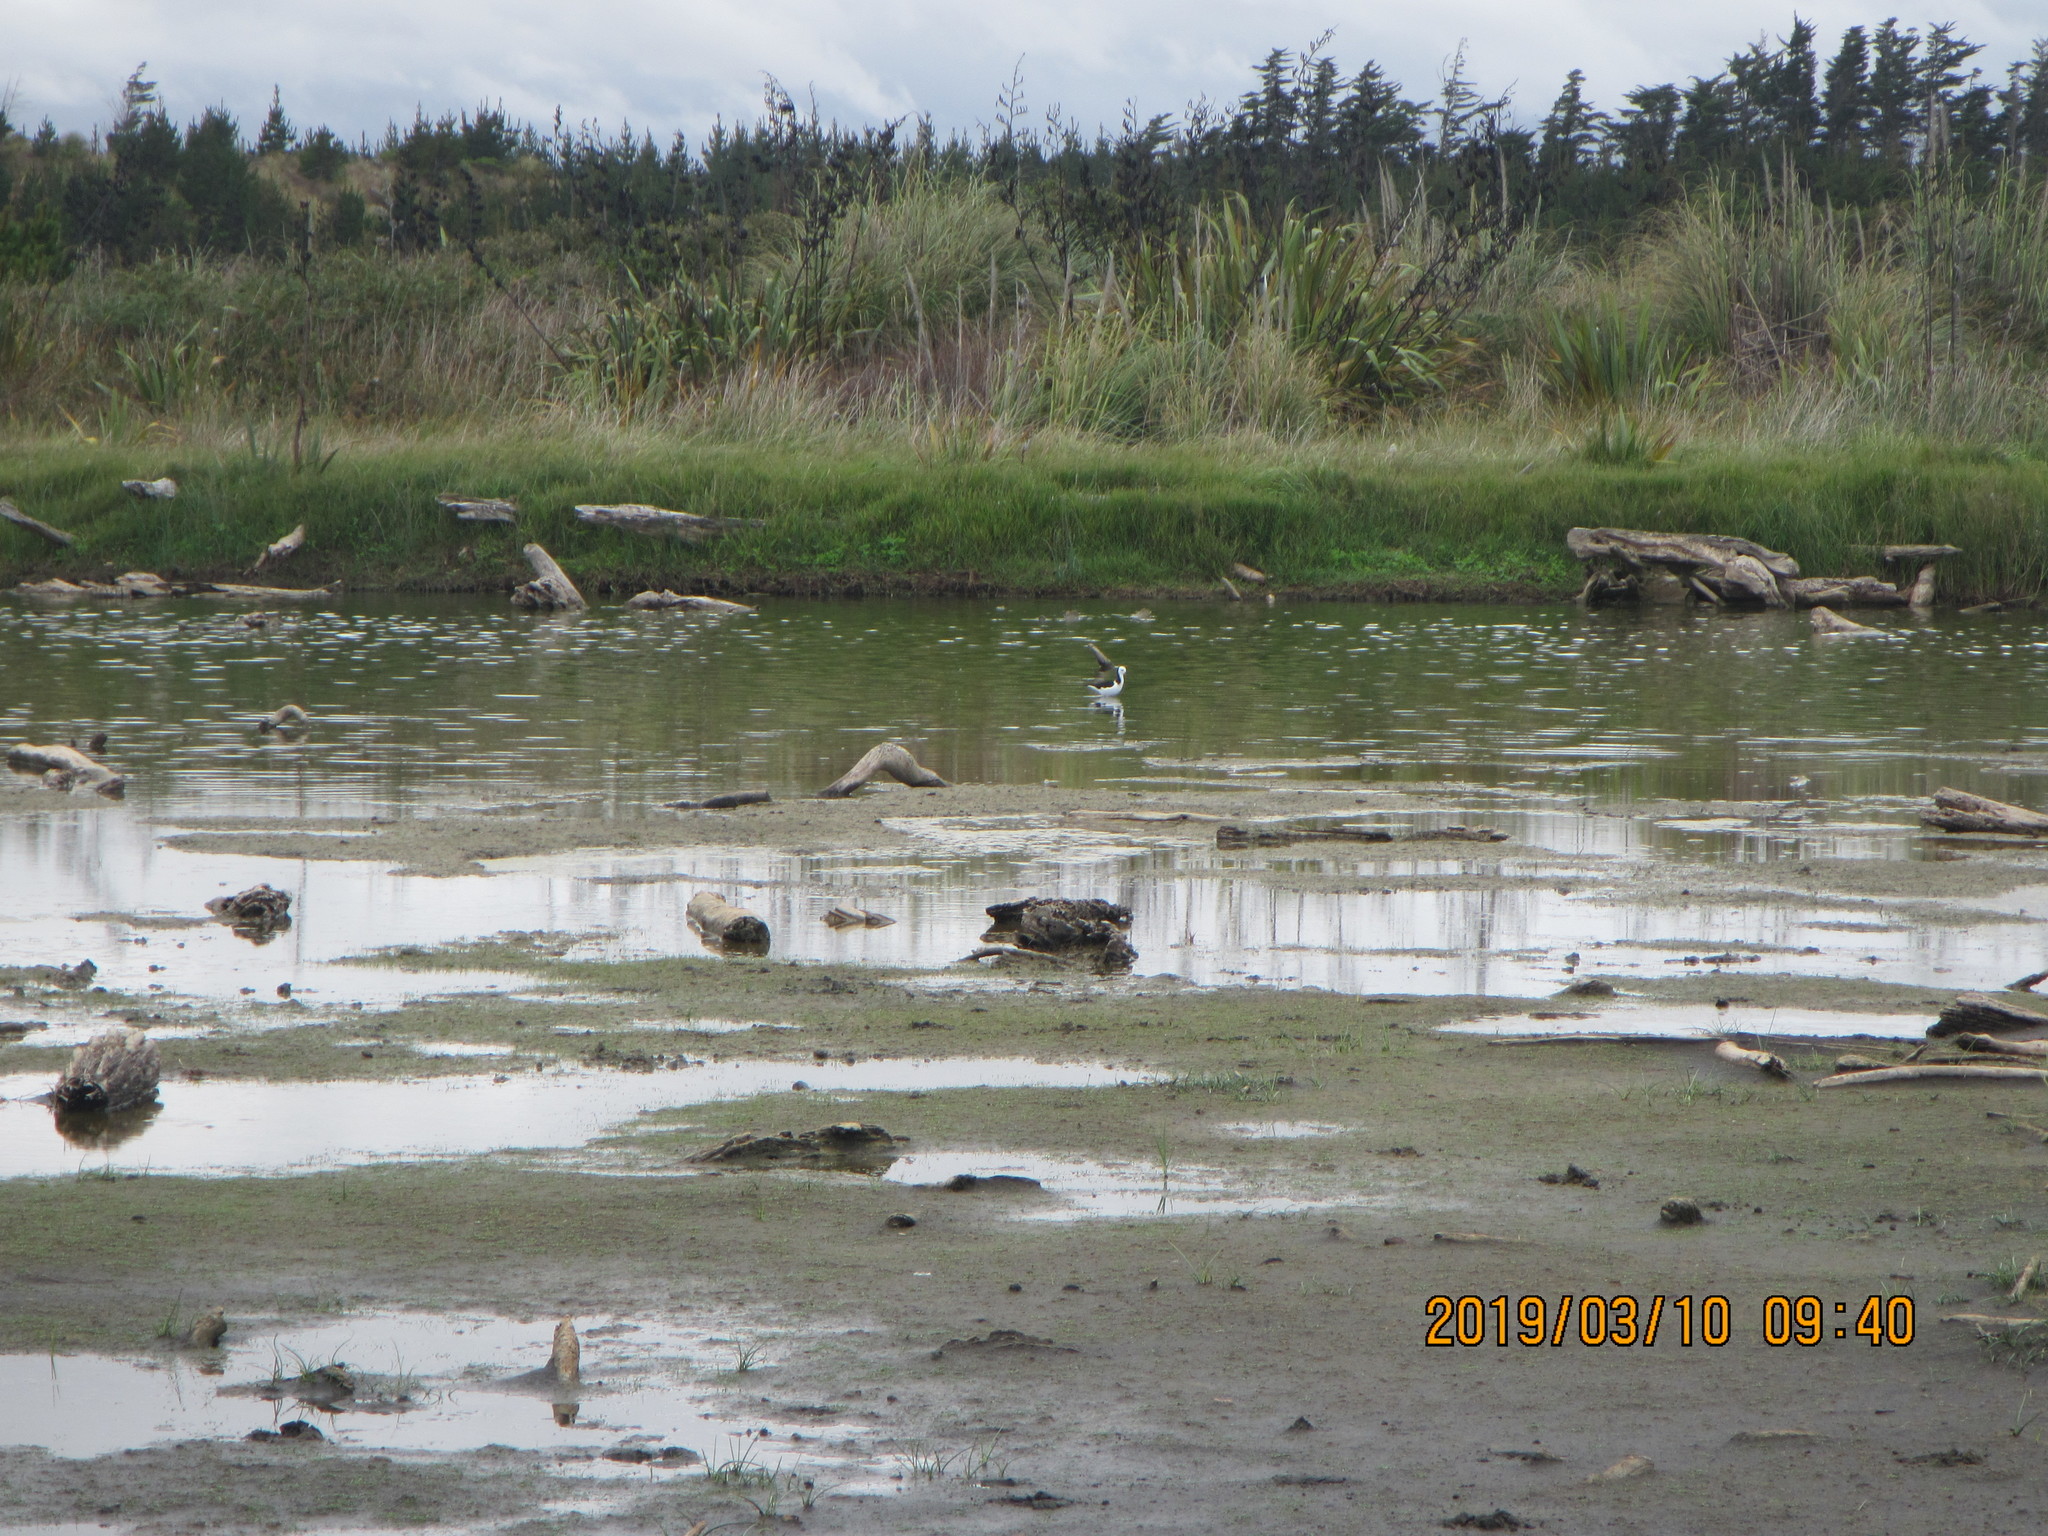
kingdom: Animalia
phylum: Chordata
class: Aves
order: Charadriiformes
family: Recurvirostridae
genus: Himantopus
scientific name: Himantopus leucocephalus
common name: White-headed stilt
